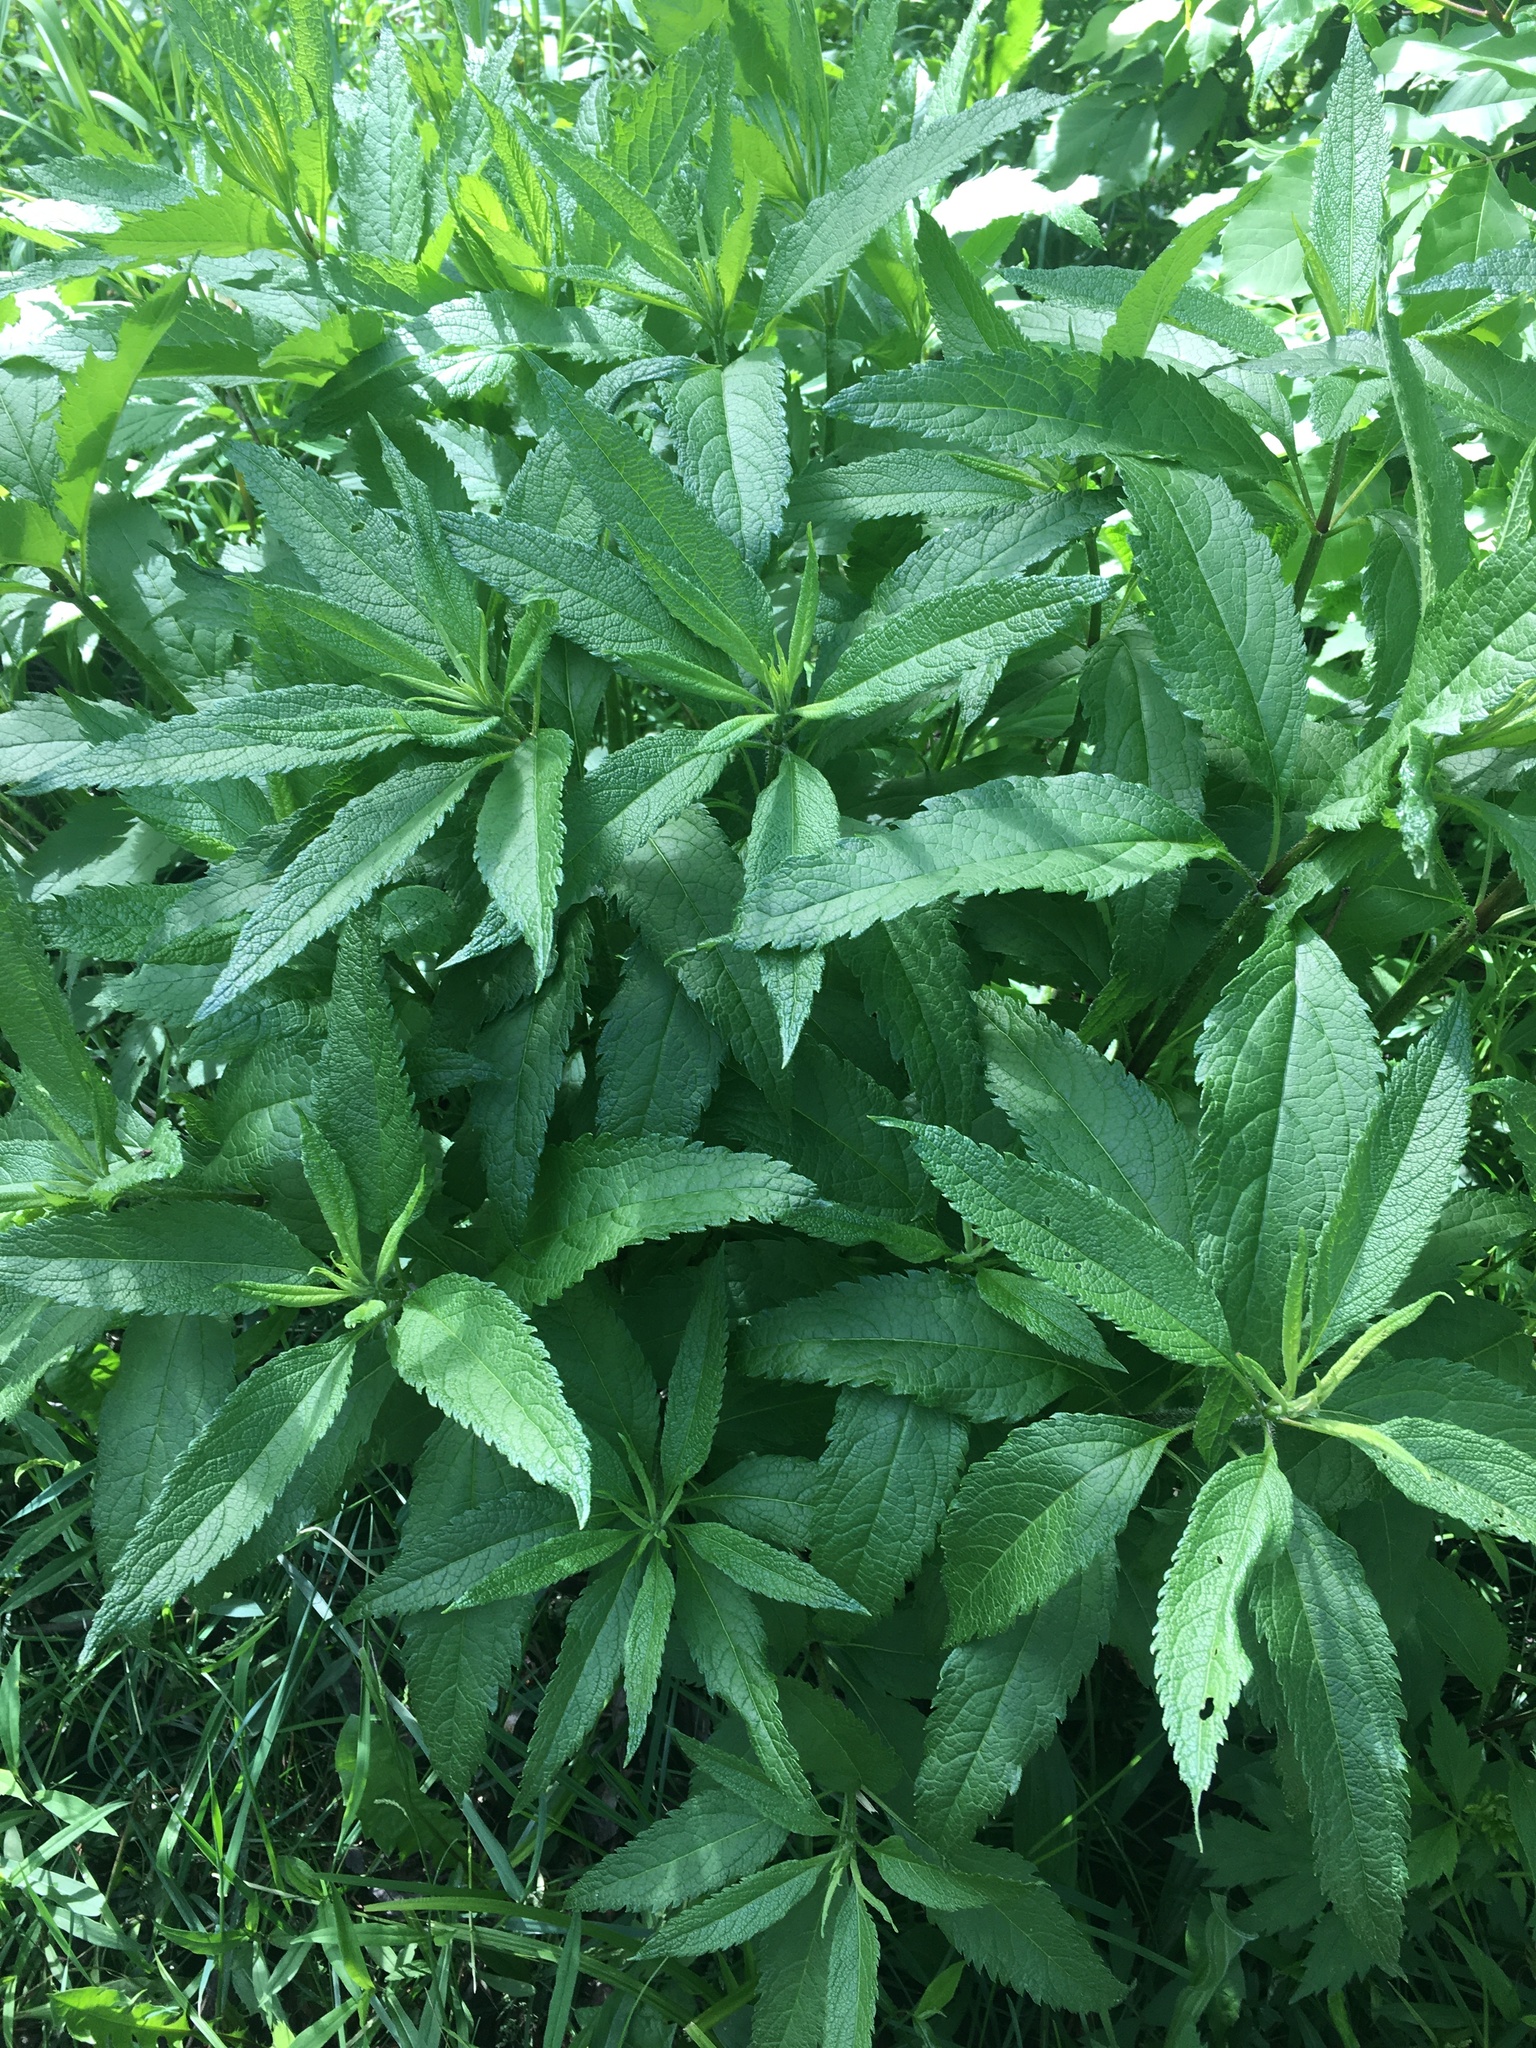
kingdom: Plantae
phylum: Tracheophyta
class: Magnoliopsida
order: Asterales
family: Asteraceae
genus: Eutrochium
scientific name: Eutrochium maculatum
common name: Spotted joe pye weed
